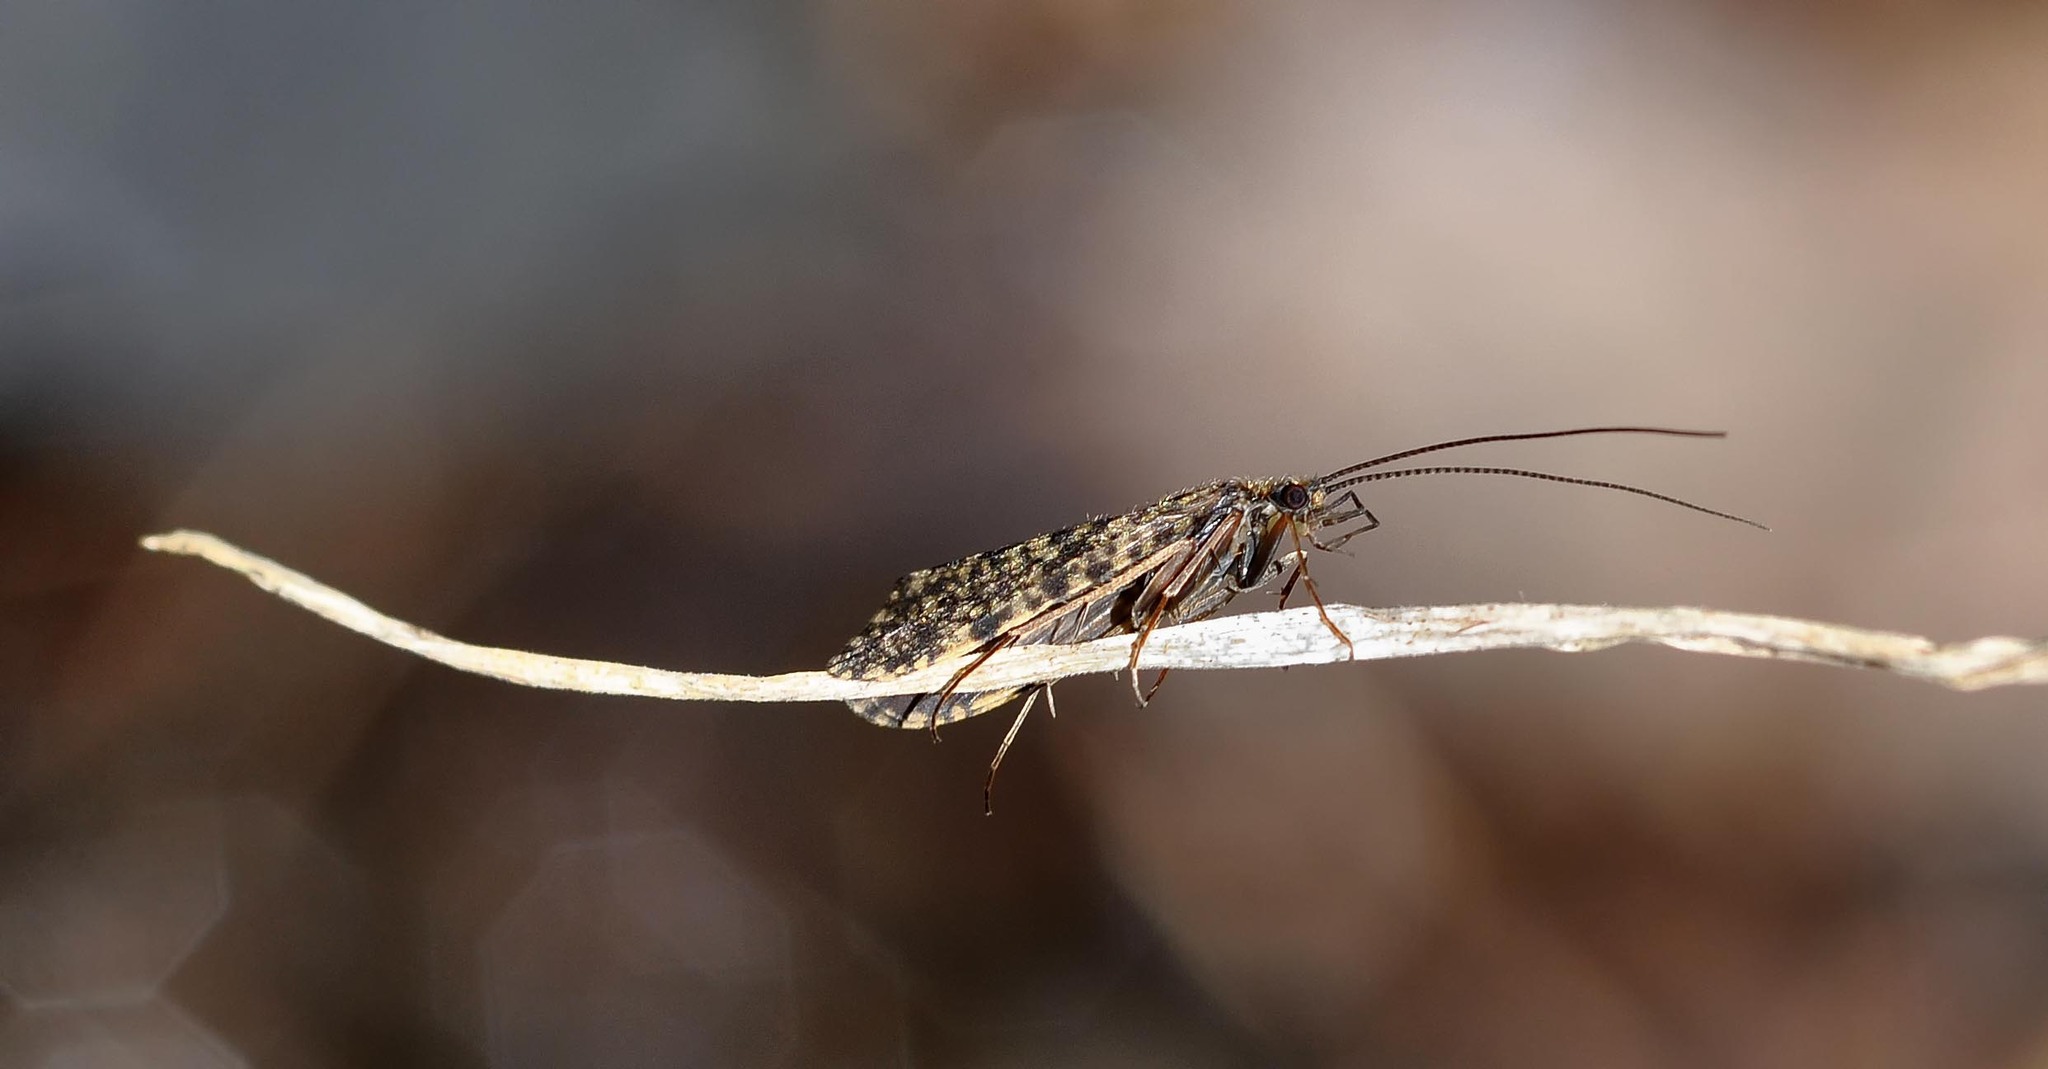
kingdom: Animalia
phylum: Arthropoda
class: Insecta
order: Trichoptera
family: Philopotamidae
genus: Philopotamus
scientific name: Philopotamus montanus
